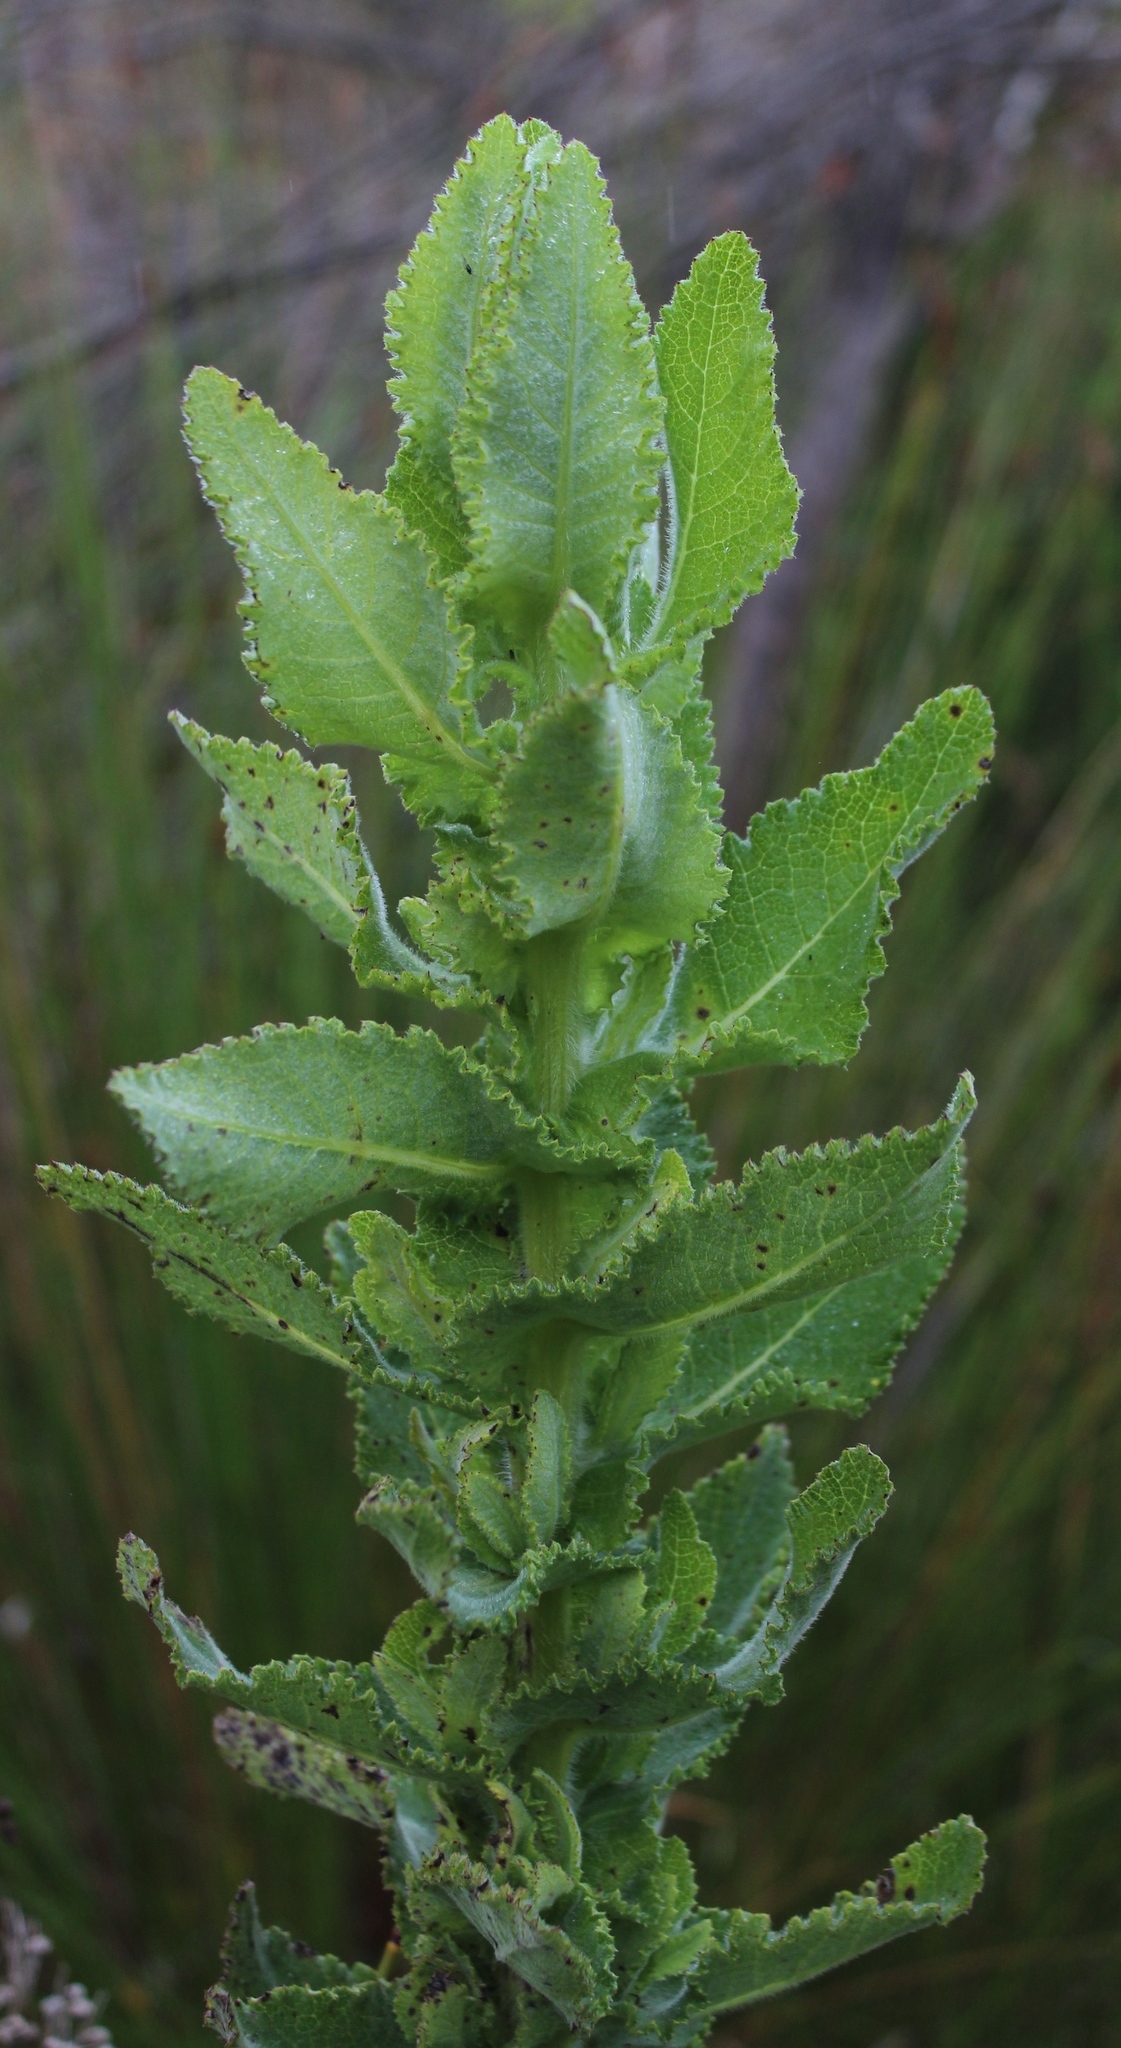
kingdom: Plantae
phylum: Tracheophyta
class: Magnoliopsida
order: Asterales
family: Asteraceae
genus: Senecio
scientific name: Senecio rigidus
